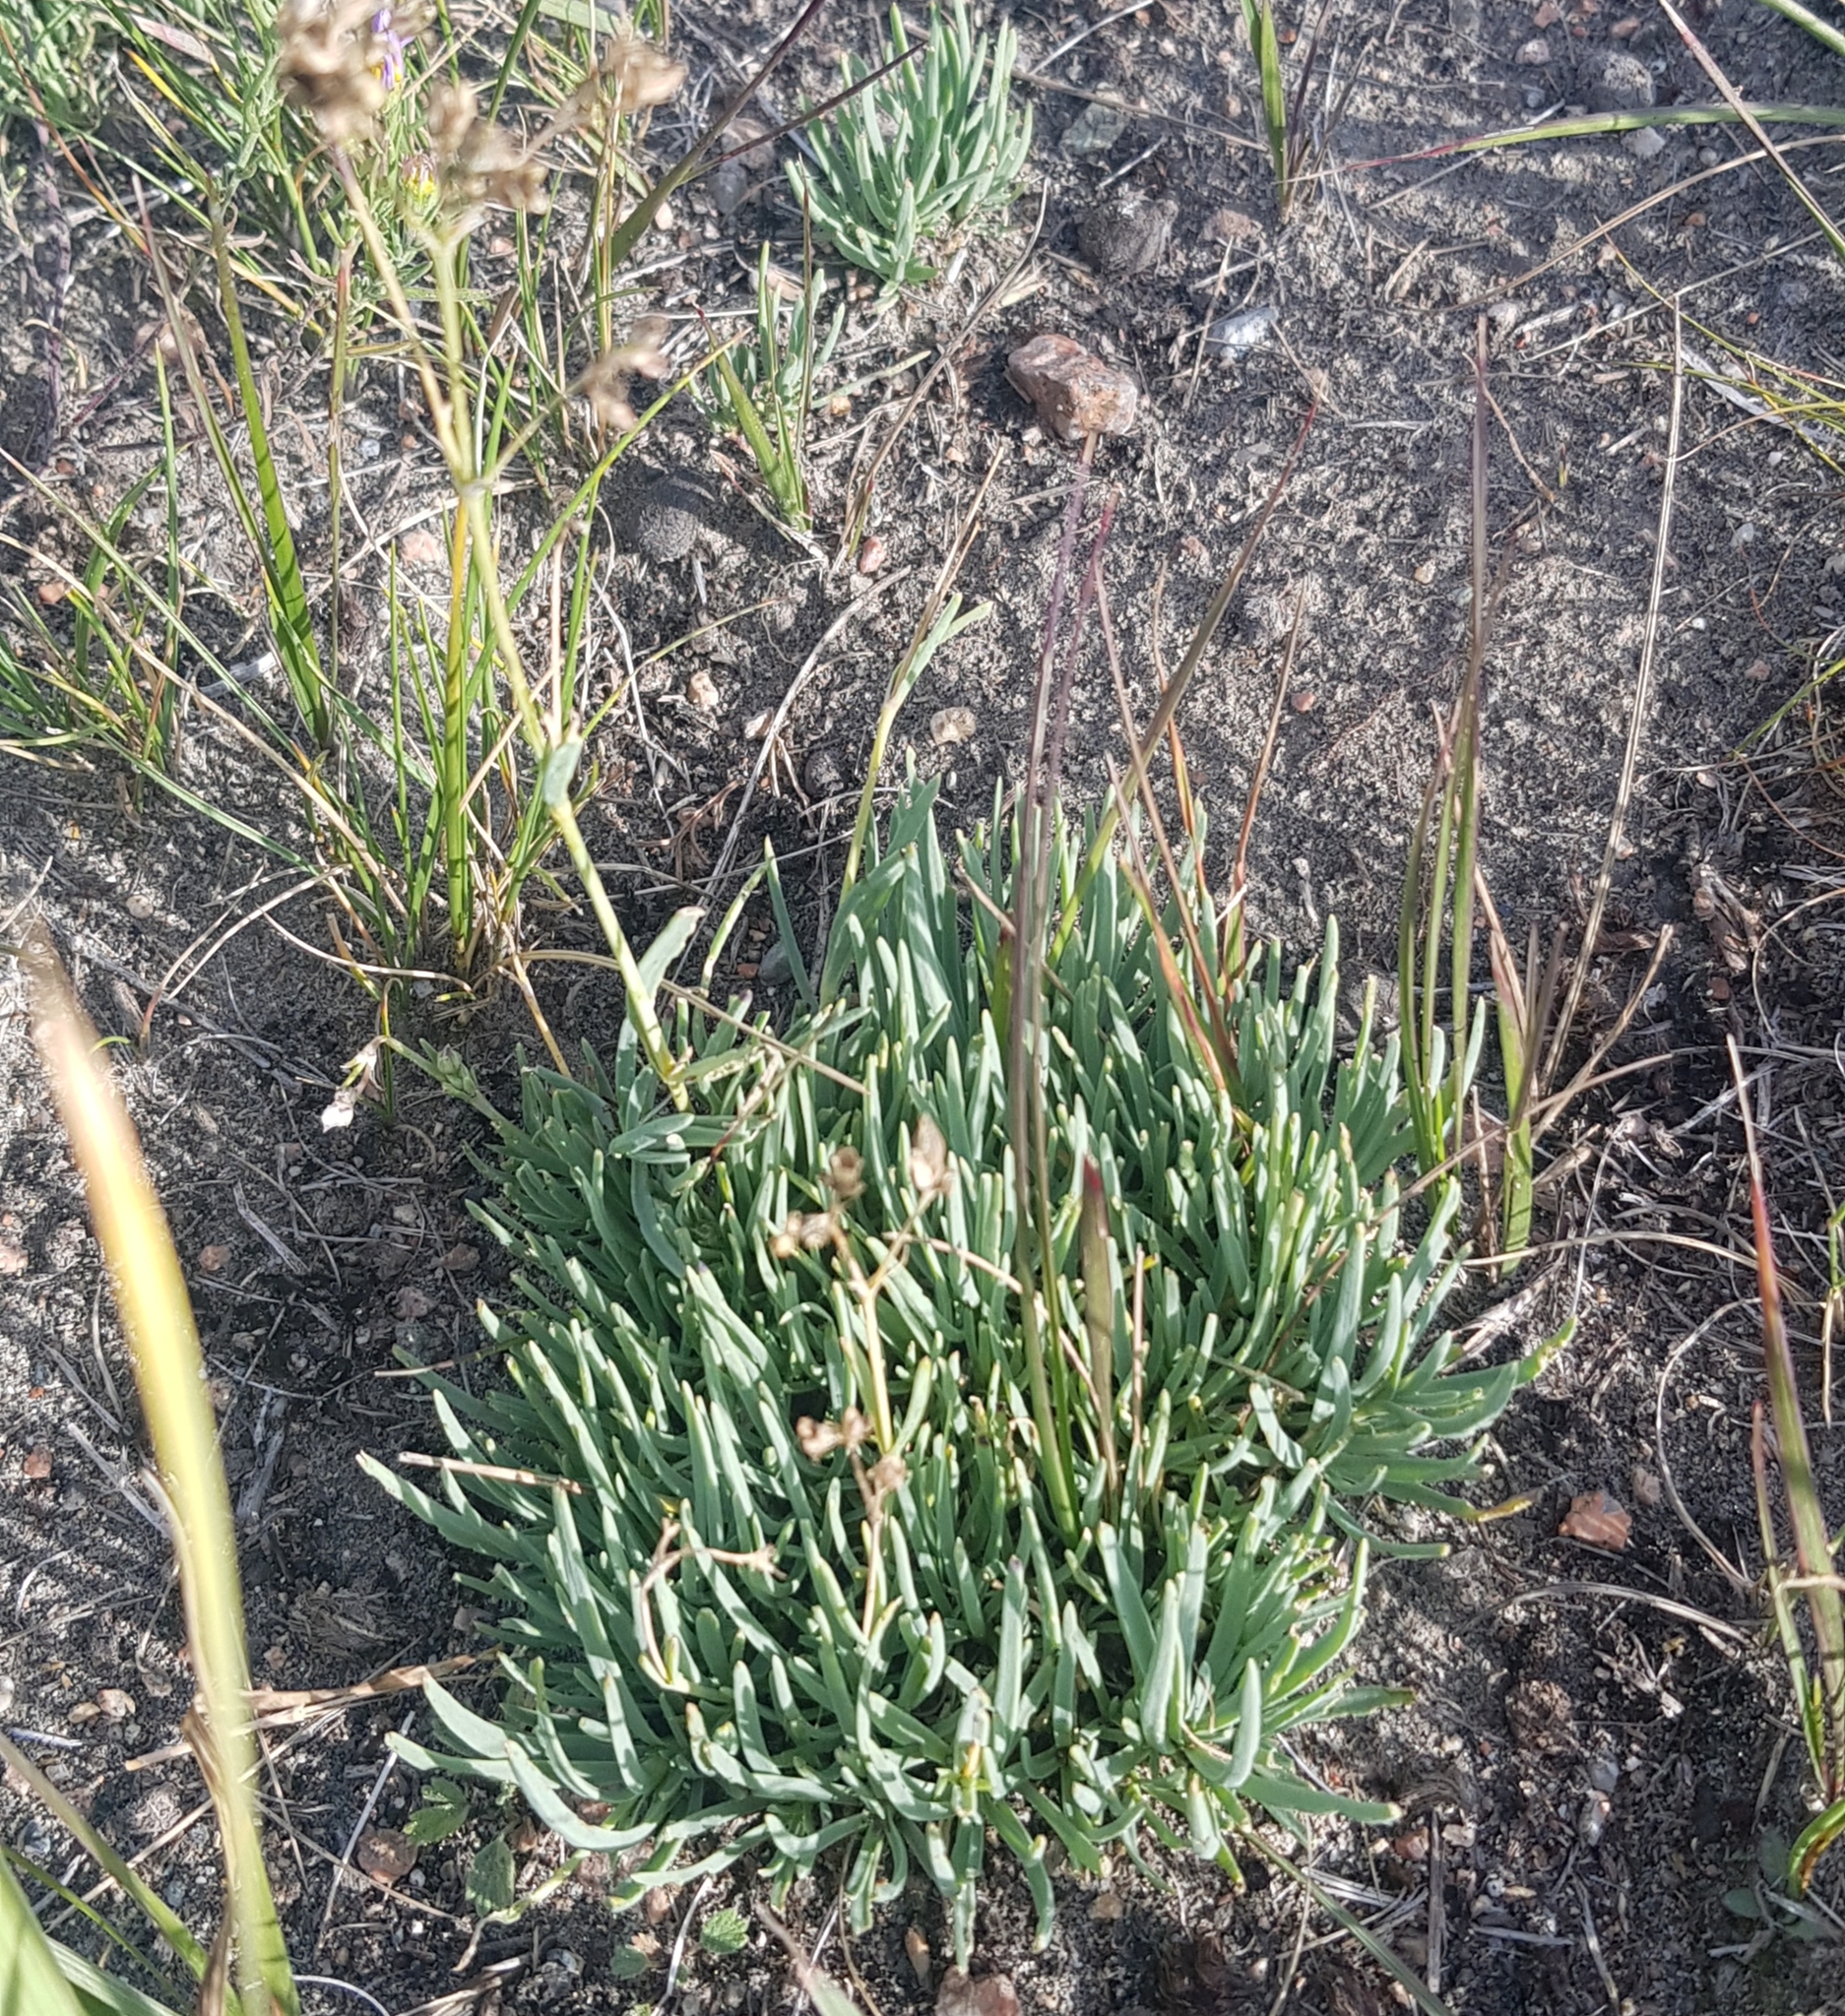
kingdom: Plantae
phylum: Tracheophyta
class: Magnoliopsida
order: Caryophyllales
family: Caryophyllaceae
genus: Gypsophila
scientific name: Gypsophila patrinii
